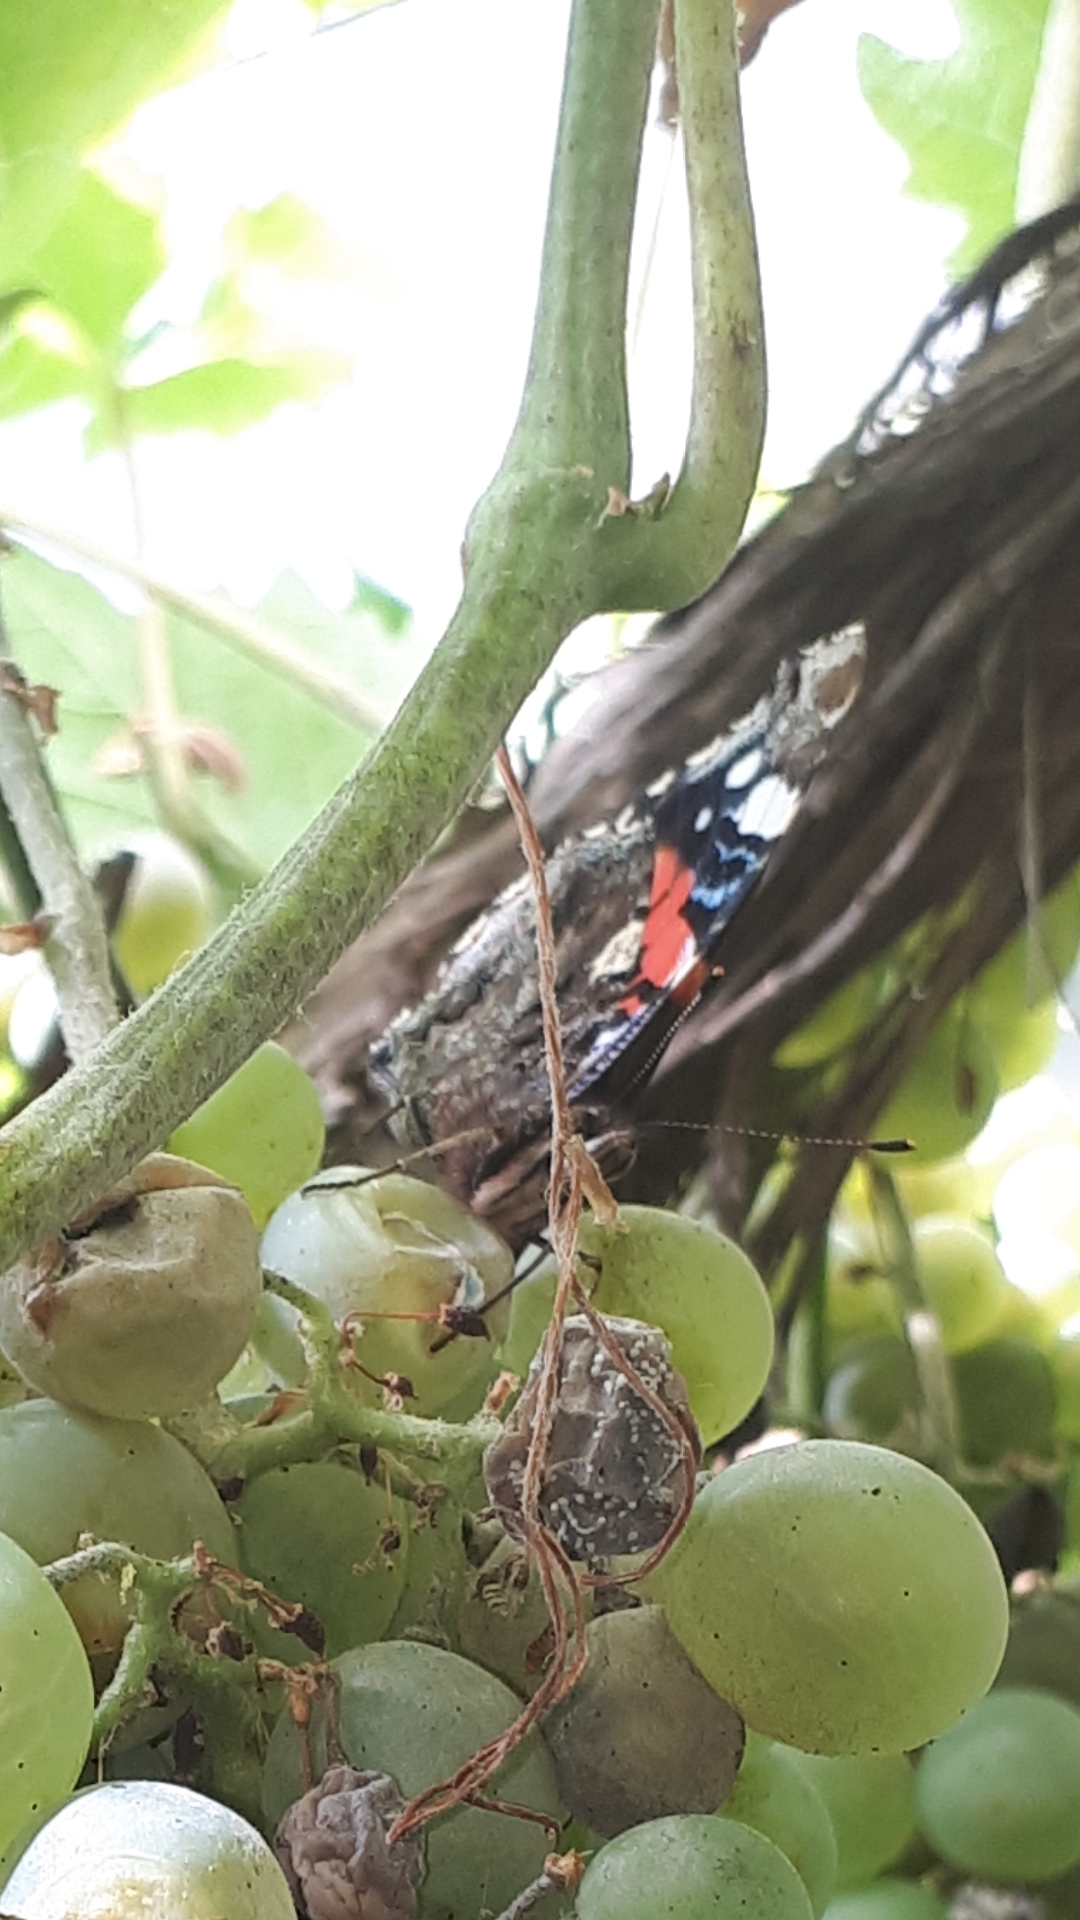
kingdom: Animalia
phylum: Arthropoda
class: Insecta
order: Lepidoptera
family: Nymphalidae
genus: Vanessa
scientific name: Vanessa atalanta
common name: Red admiral
